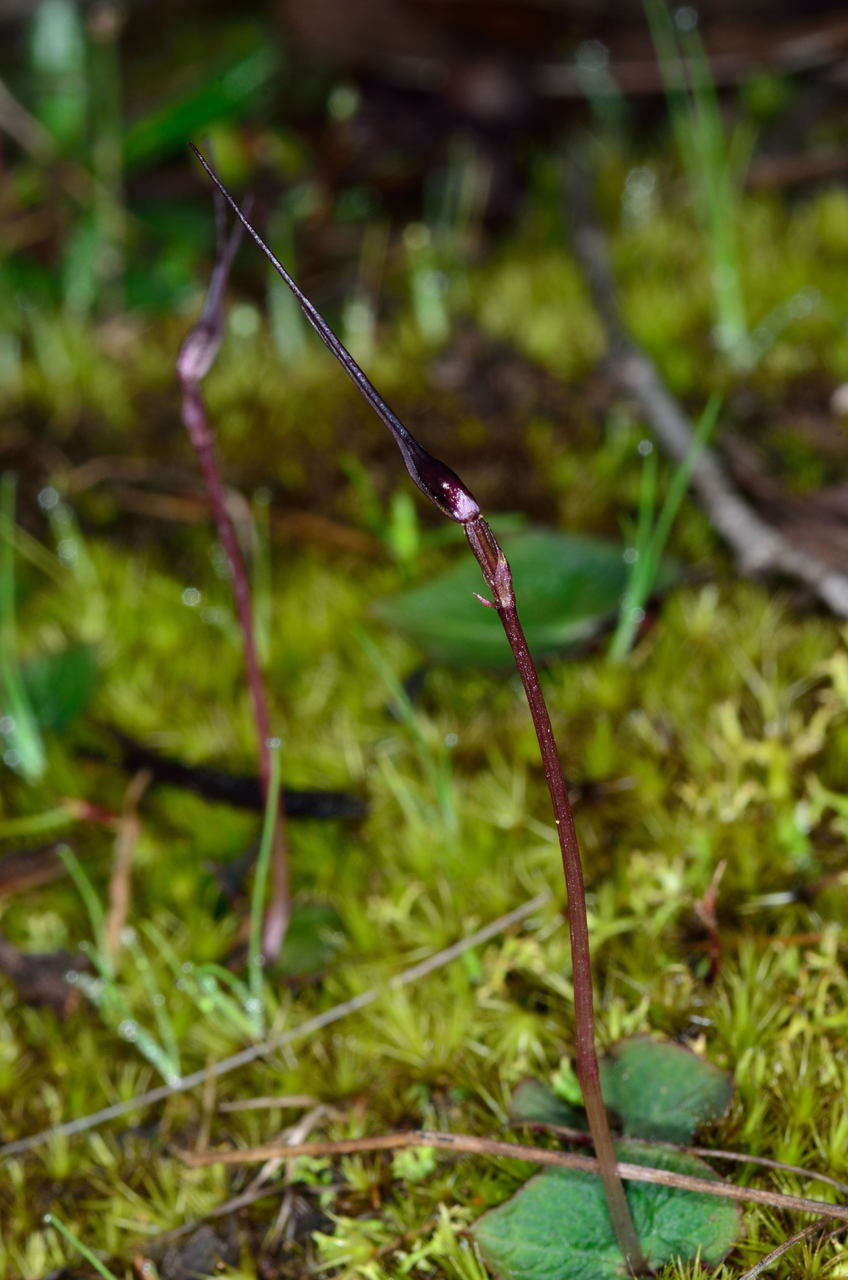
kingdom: Plantae
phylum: Tracheophyta
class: Liliopsida
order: Asparagales
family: Orchidaceae
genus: Acianthus
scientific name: Acianthus caudatus
